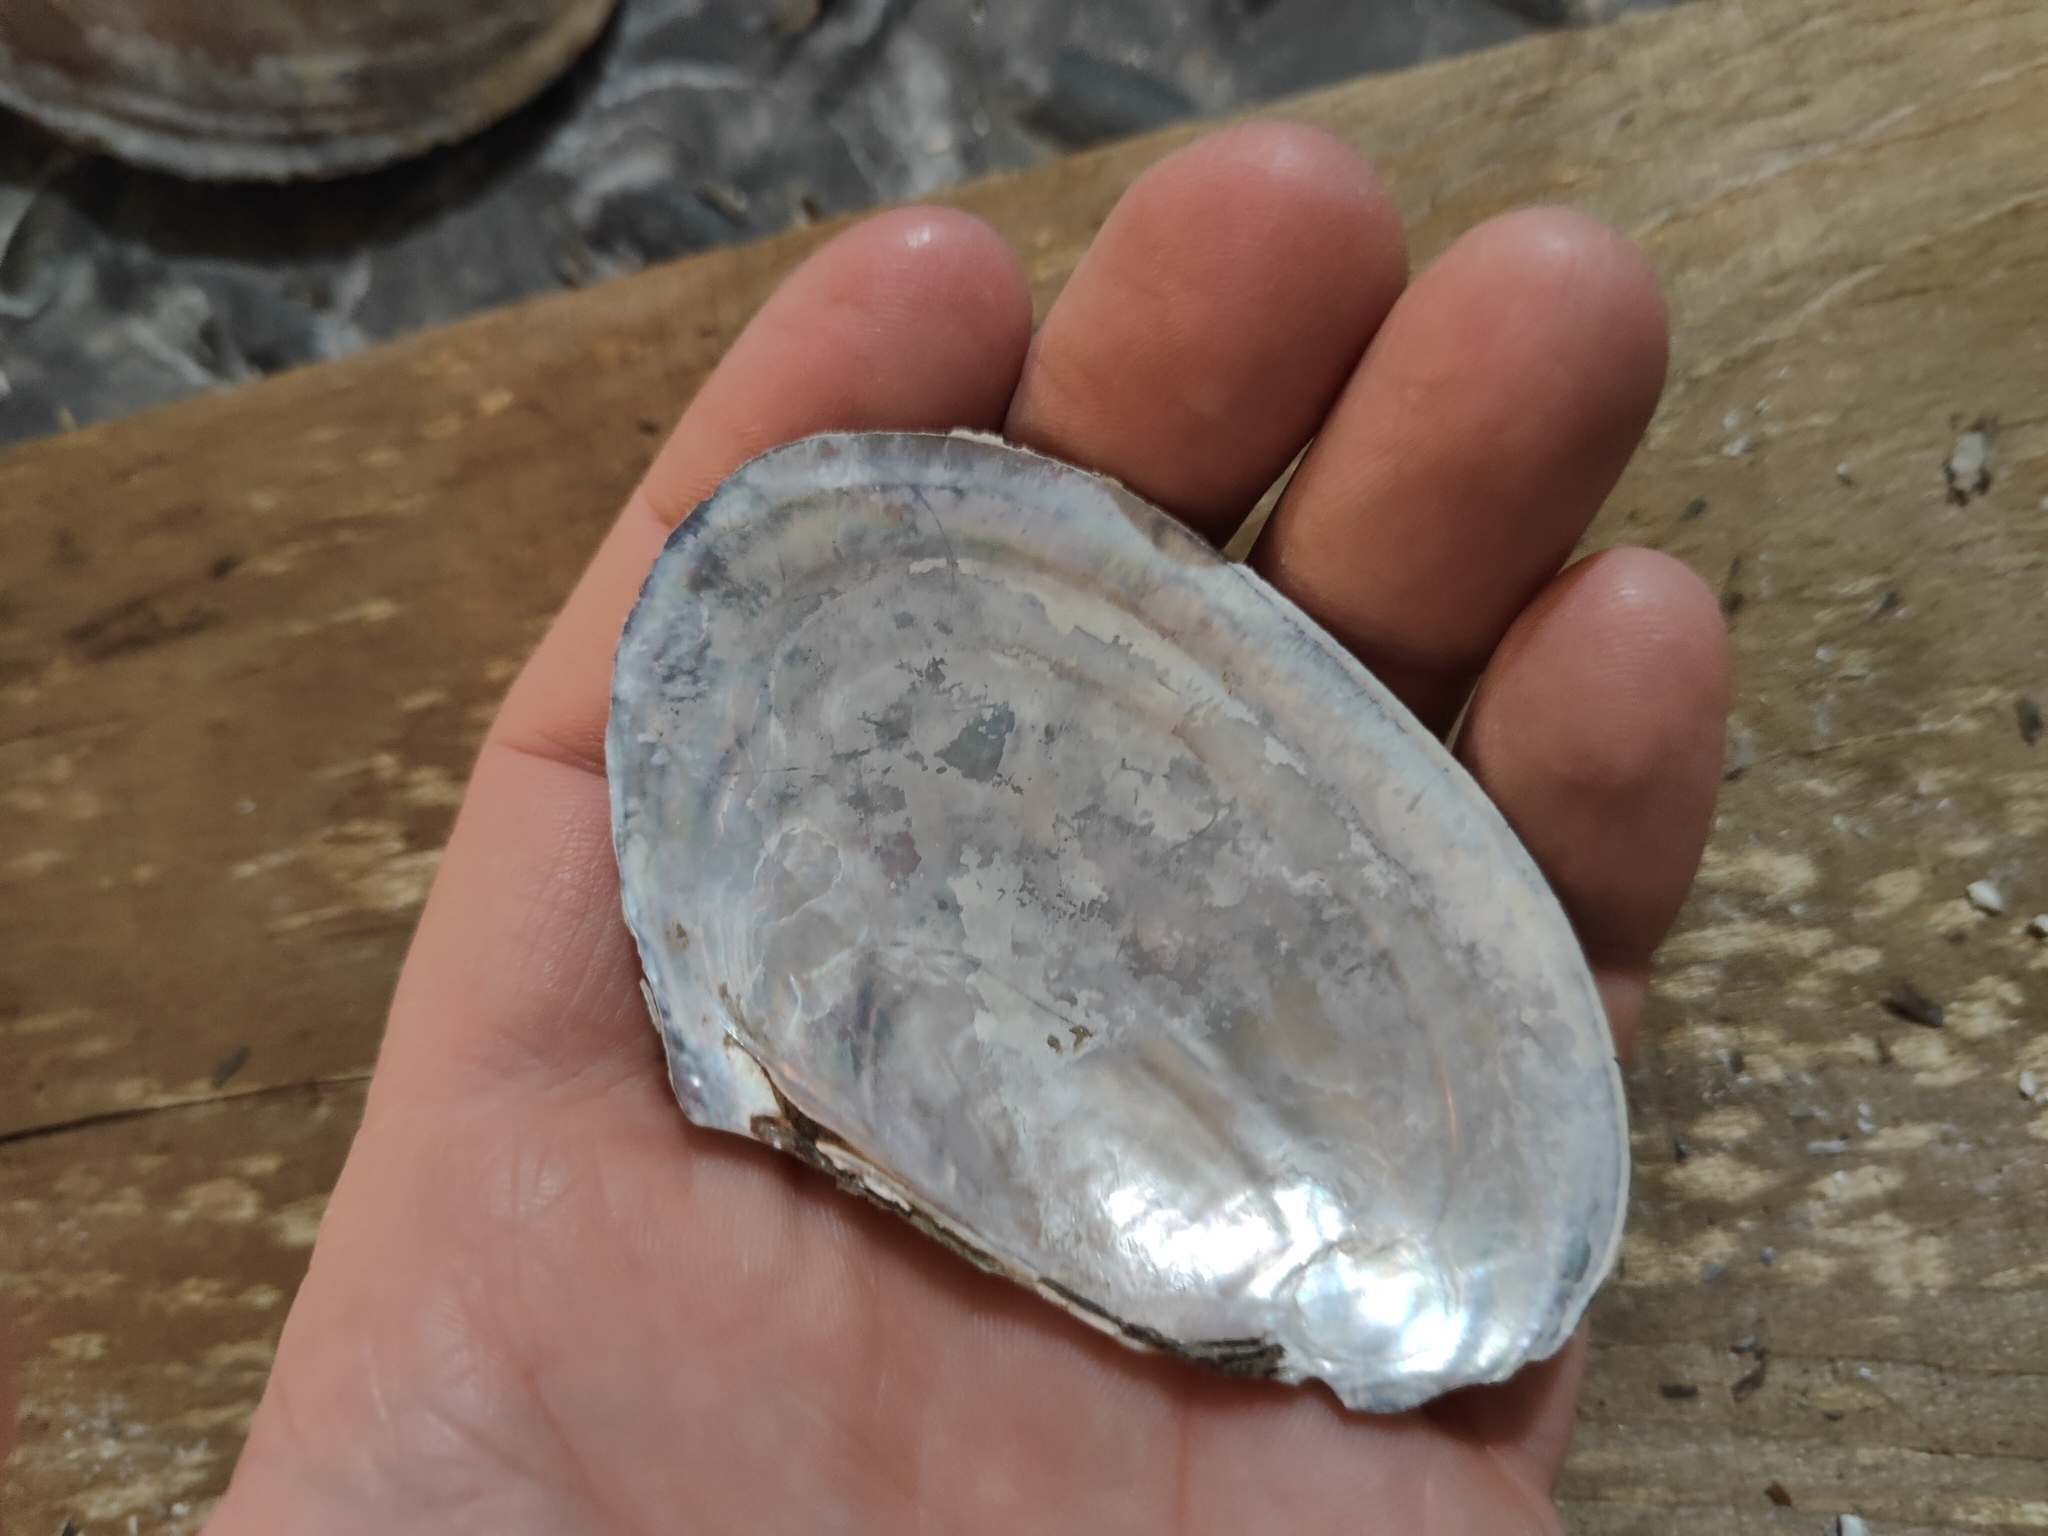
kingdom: Animalia
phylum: Mollusca
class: Bivalvia
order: Unionida
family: Unionidae
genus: Potamilus
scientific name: Potamilus ohiensis
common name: Pink papershell
